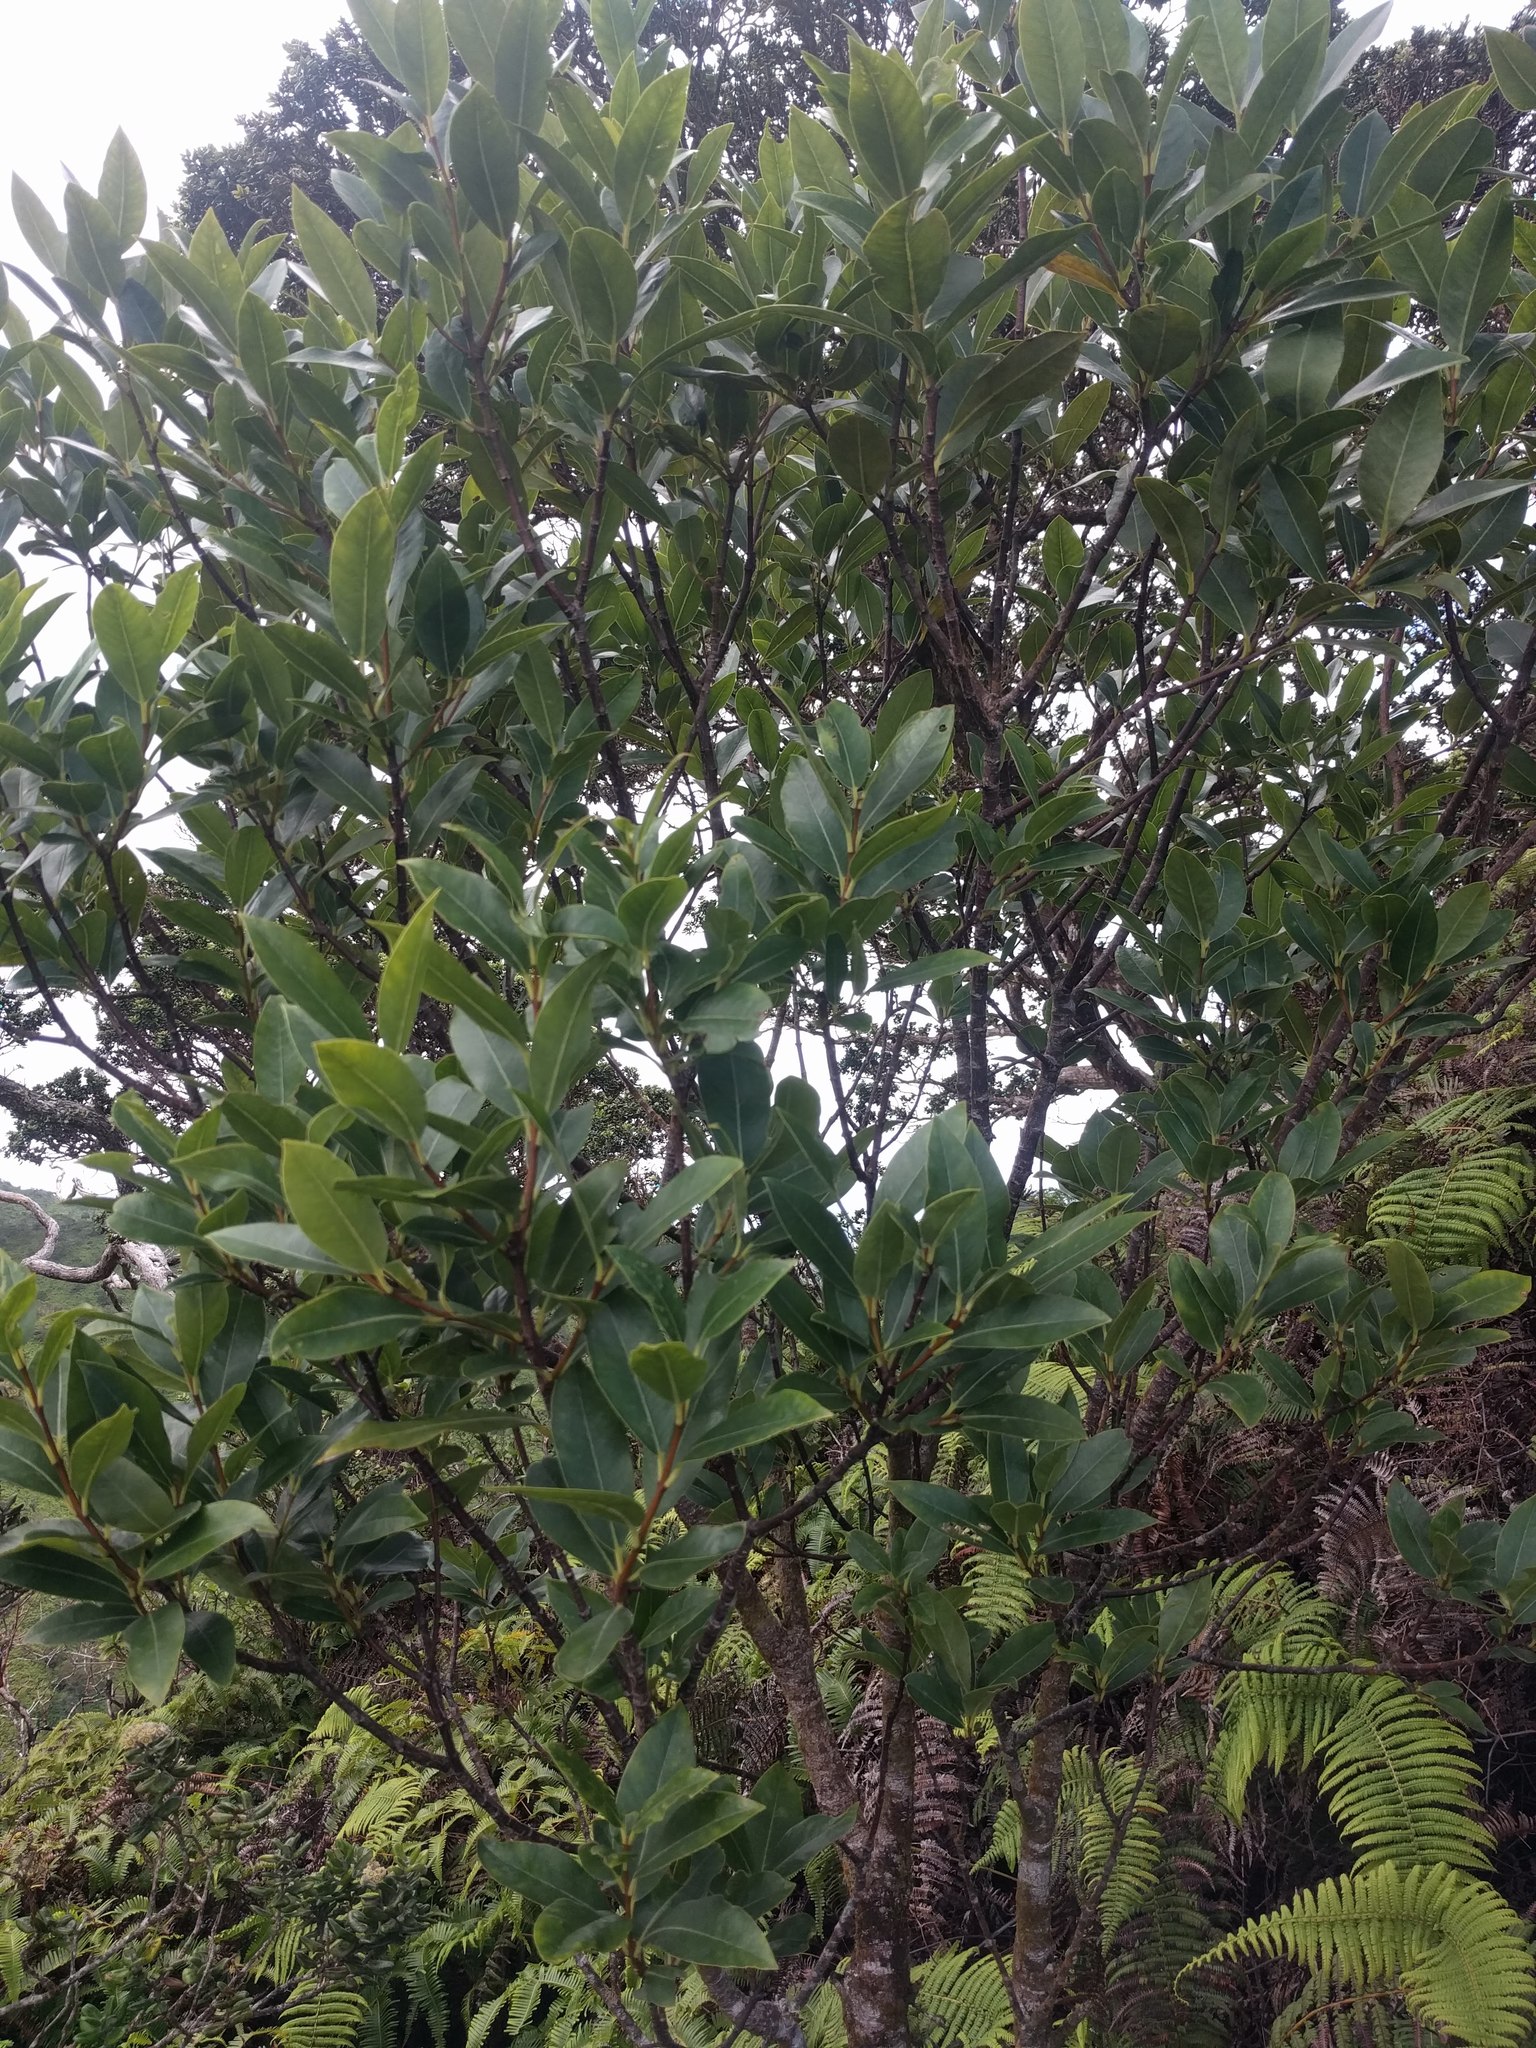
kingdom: Plantae
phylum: Tracheophyta
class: Magnoliopsida
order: Malvales
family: Thymelaeaceae
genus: Wikstroemia
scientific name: Wikstroemia oahuensis
